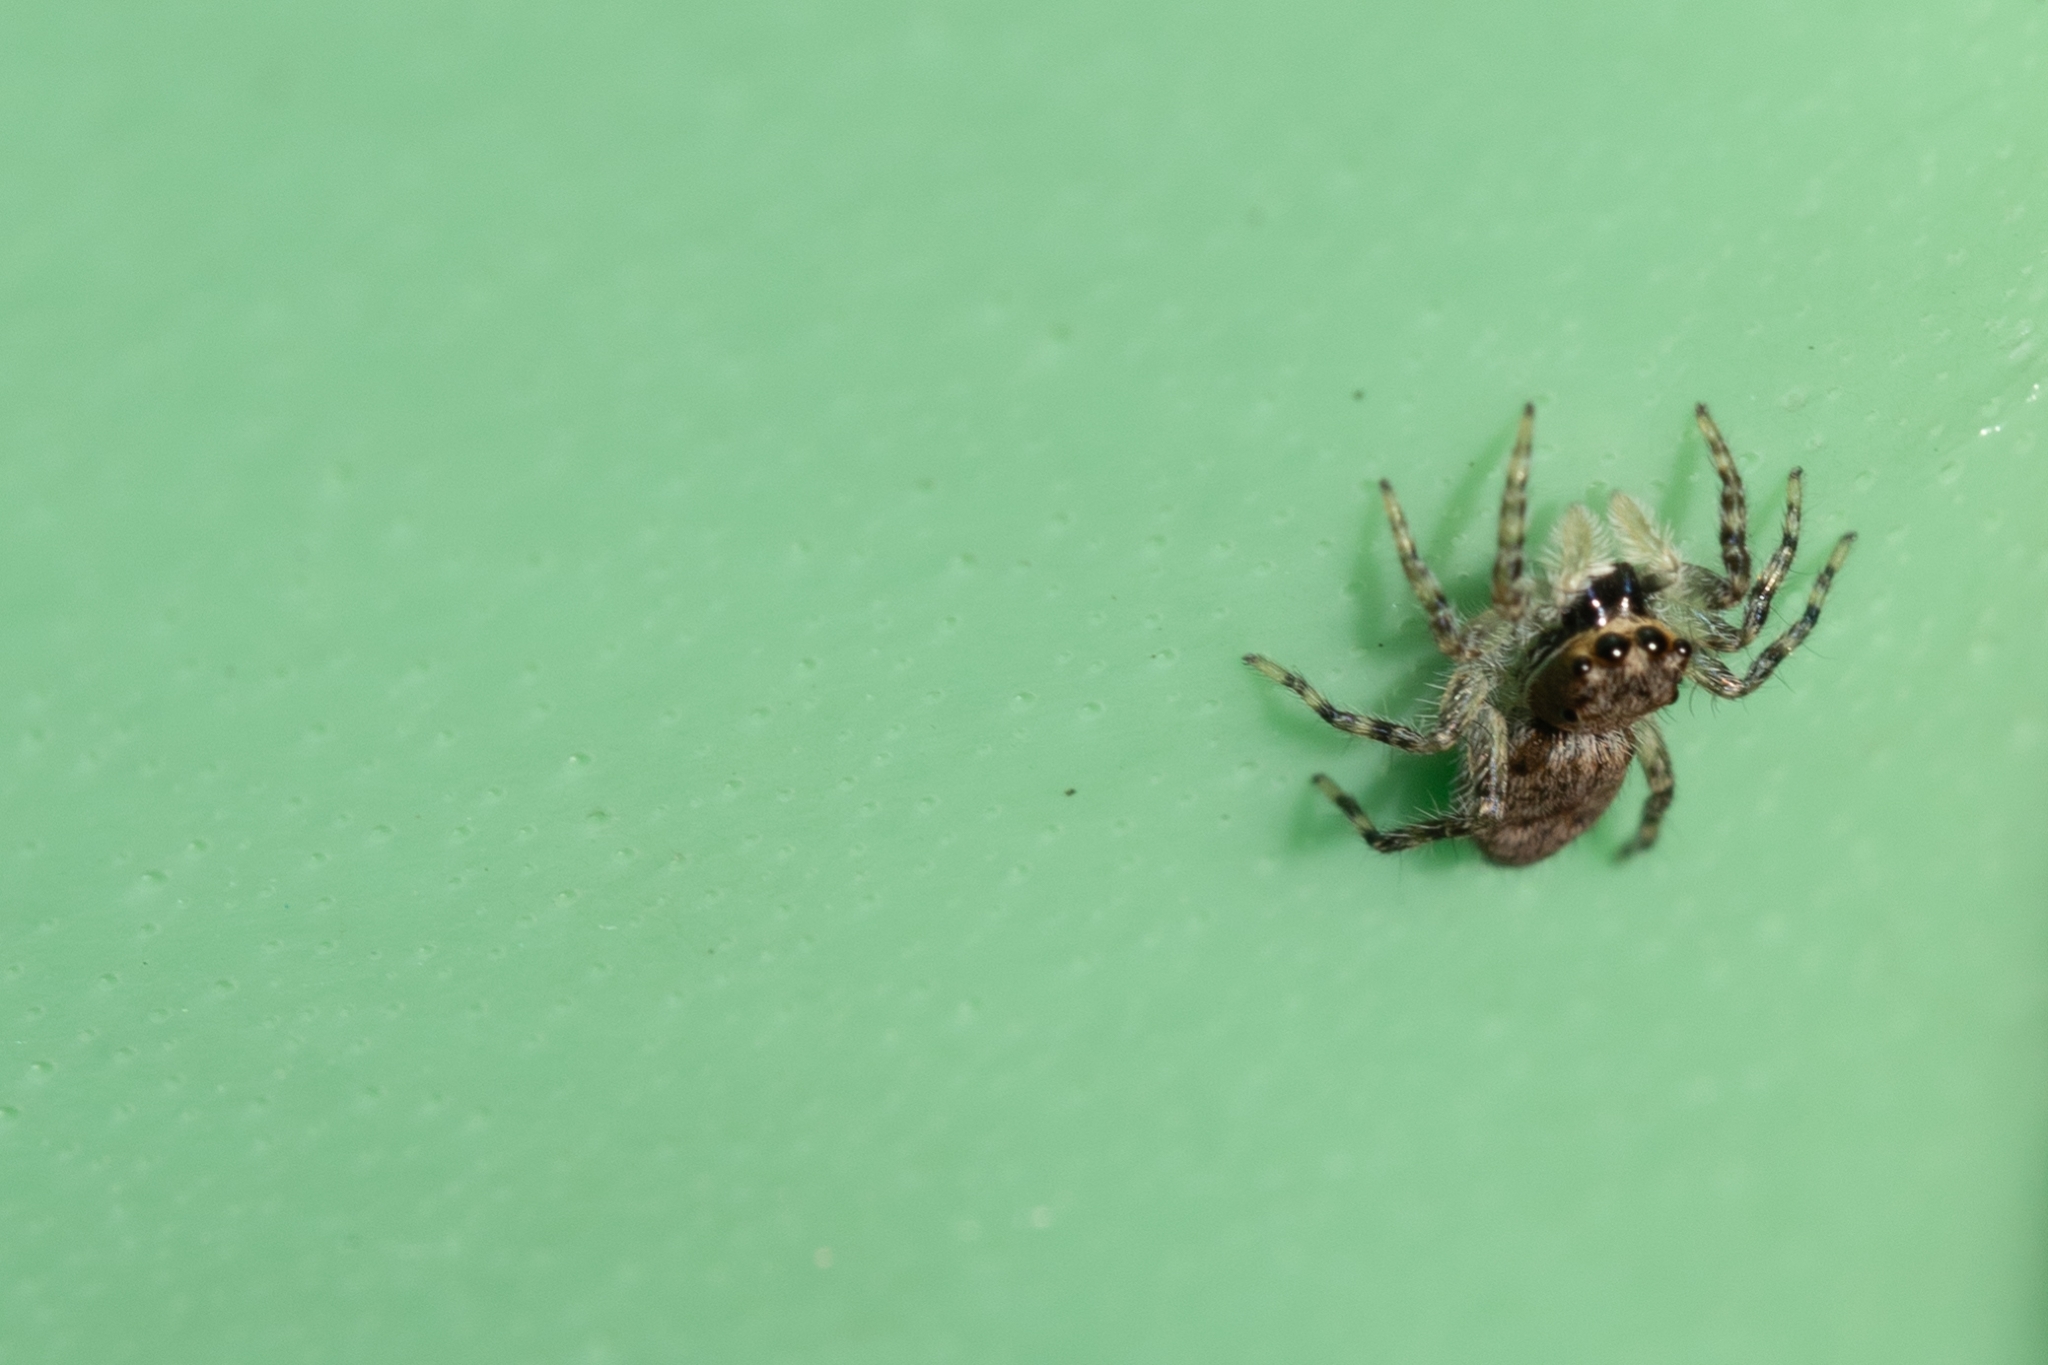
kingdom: Animalia
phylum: Arthropoda
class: Arachnida
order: Araneae
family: Salticidae
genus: Menemerus
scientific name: Menemerus bivittatus
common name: Gray wall jumper
